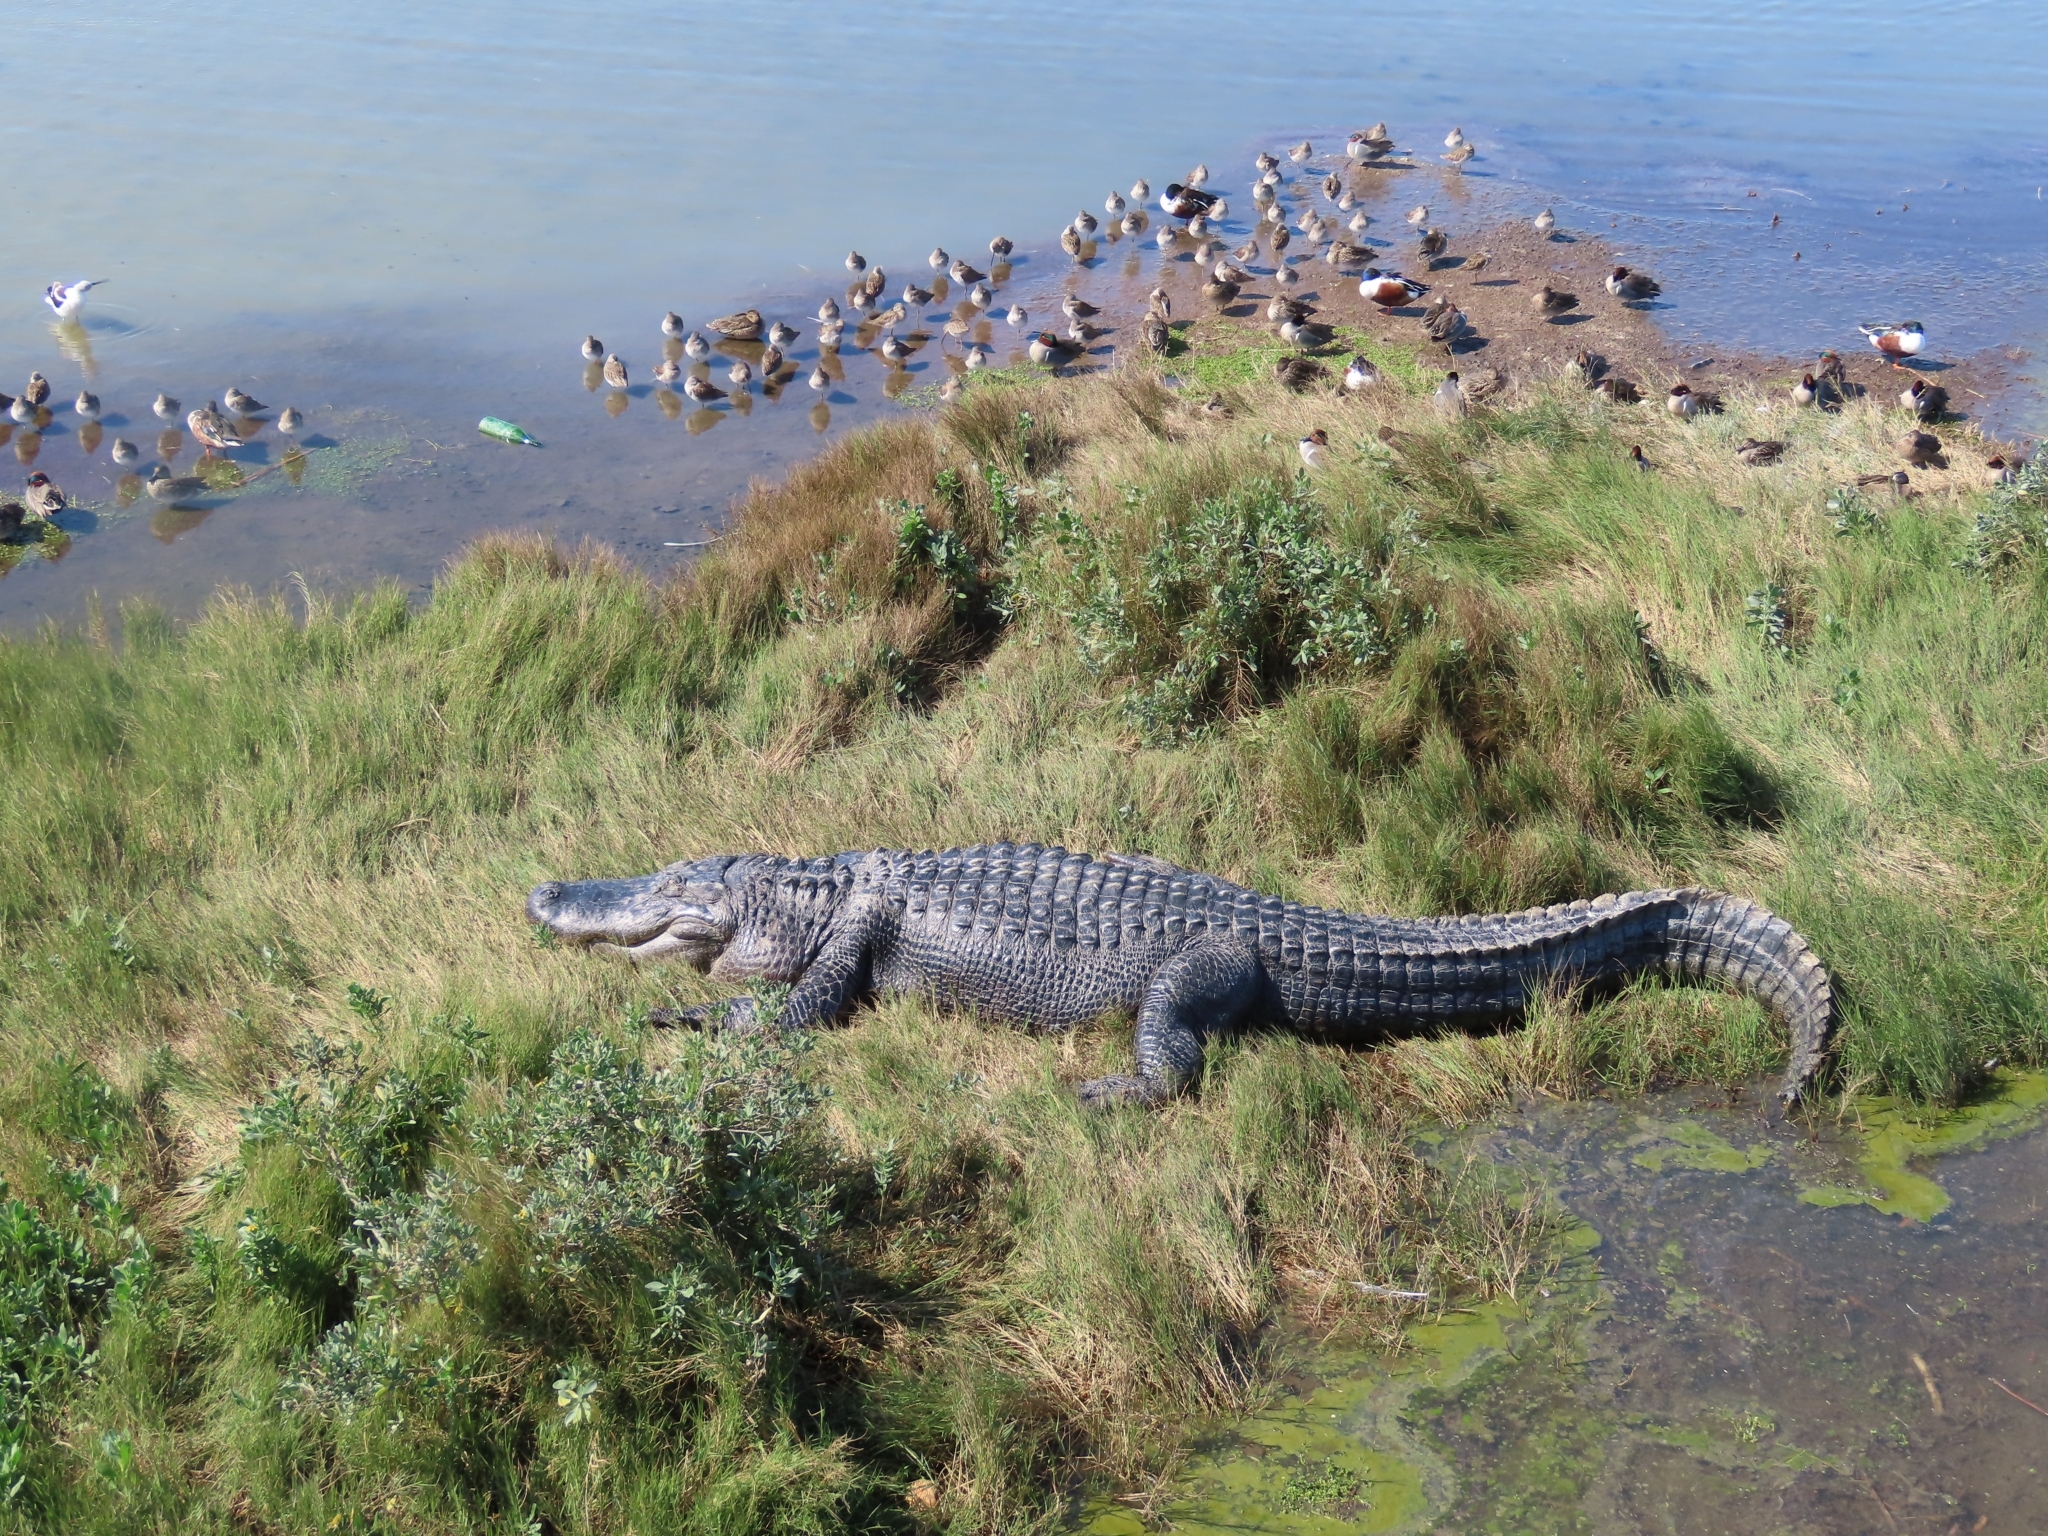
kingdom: Animalia
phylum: Chordata
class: Crocodylia
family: Alligatoridae
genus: Alligator
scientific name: Alligator mississippiensis
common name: American alligator
